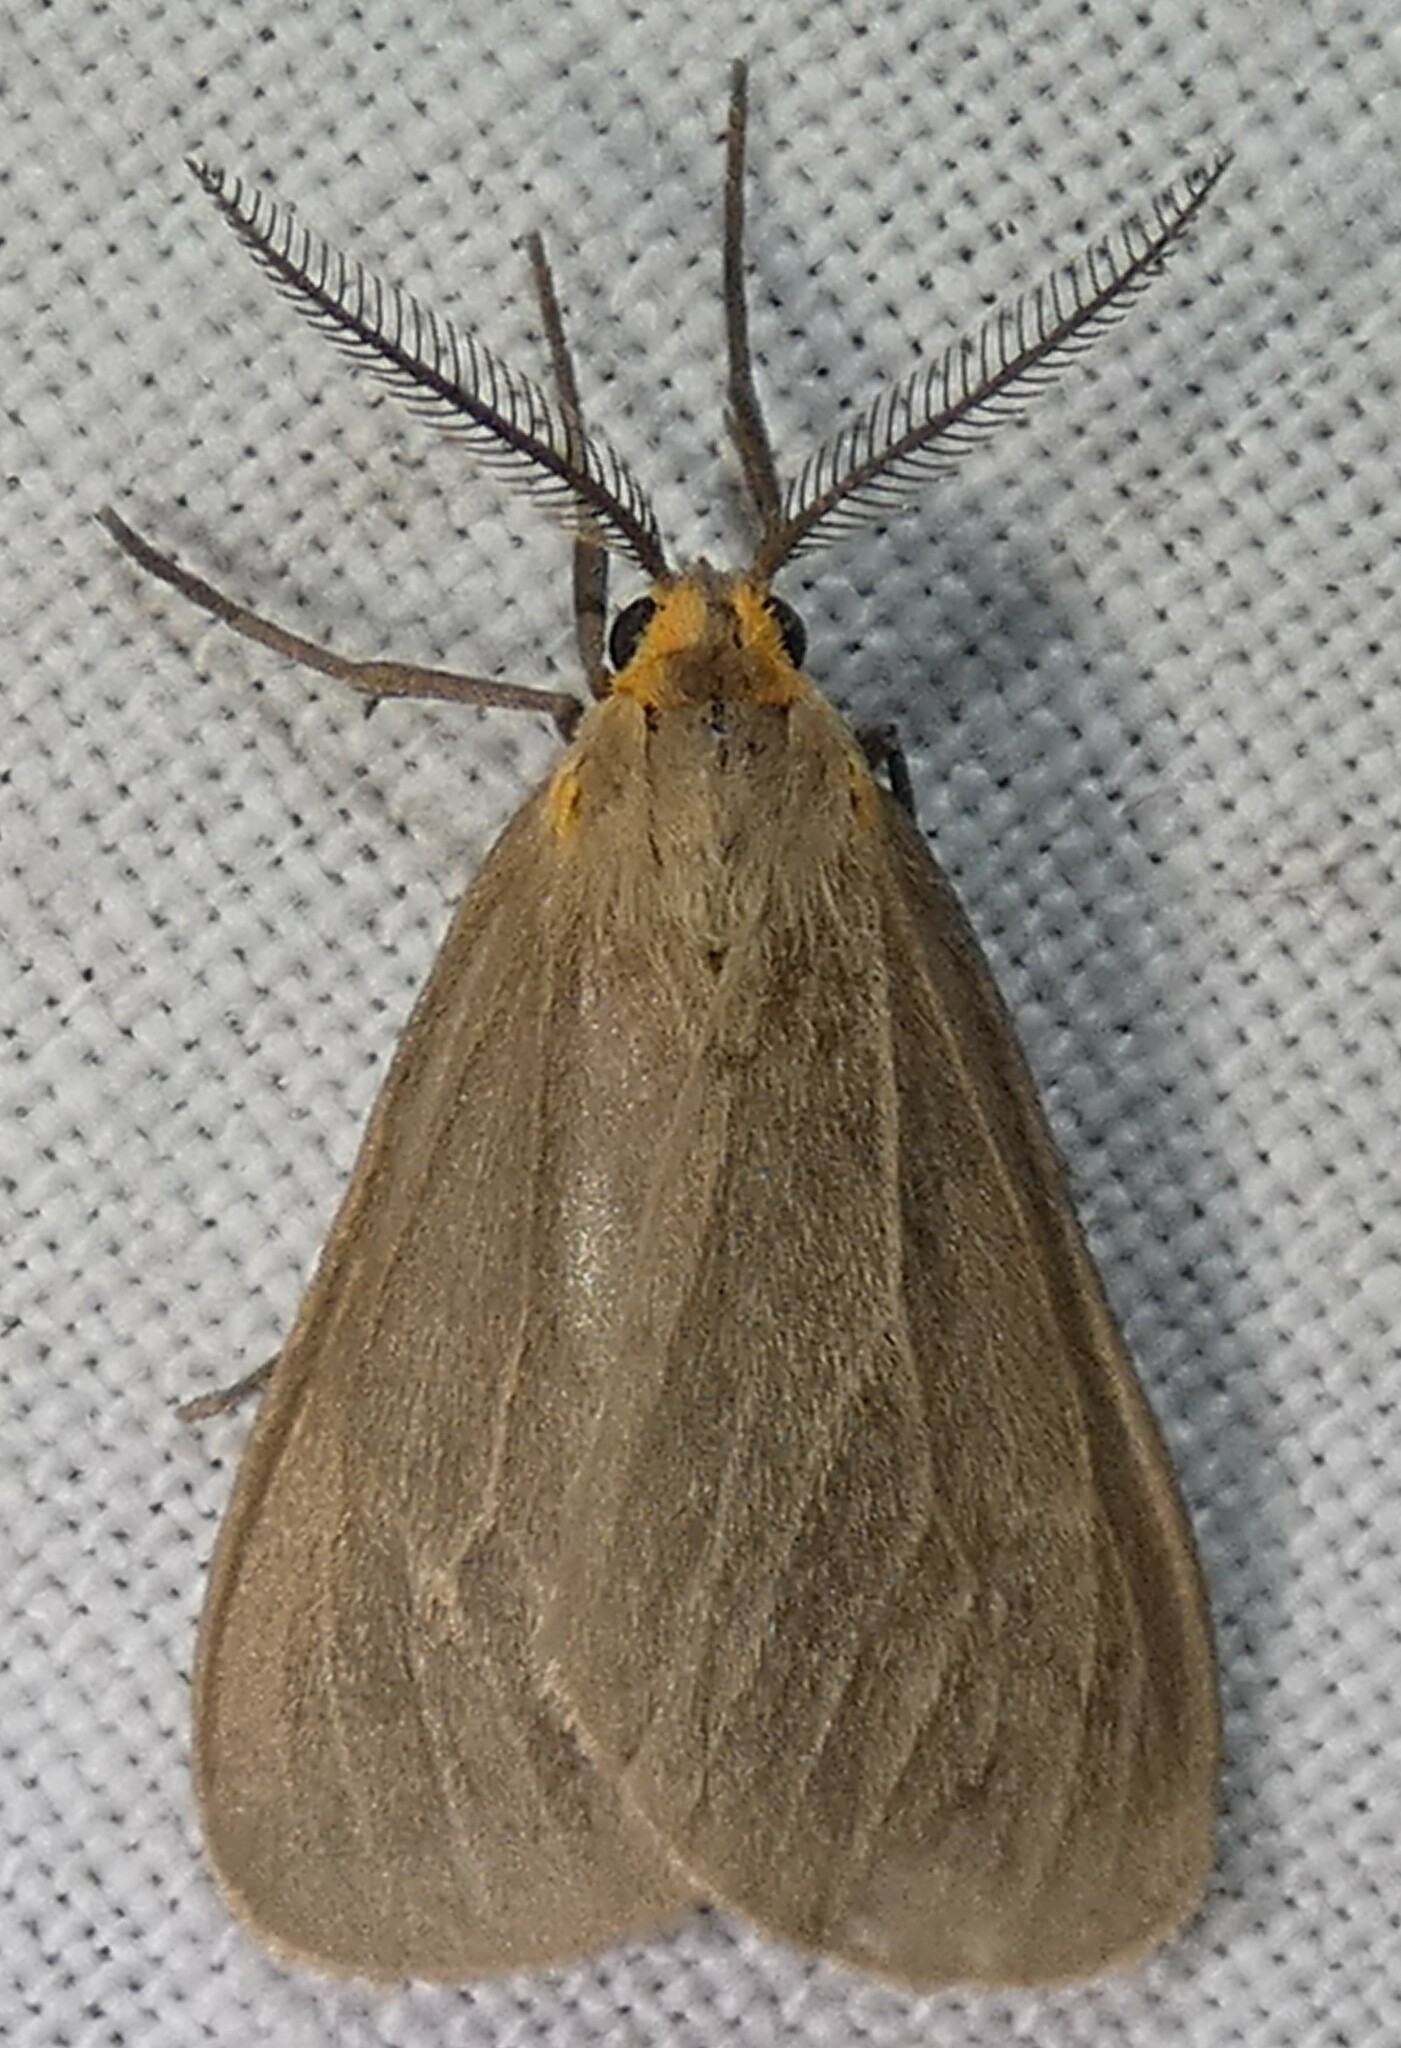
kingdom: Animalia
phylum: Arthropoda
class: Insecta
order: Lepidoptera
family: Erebidae
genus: Pagara
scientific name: Pagara simplex
